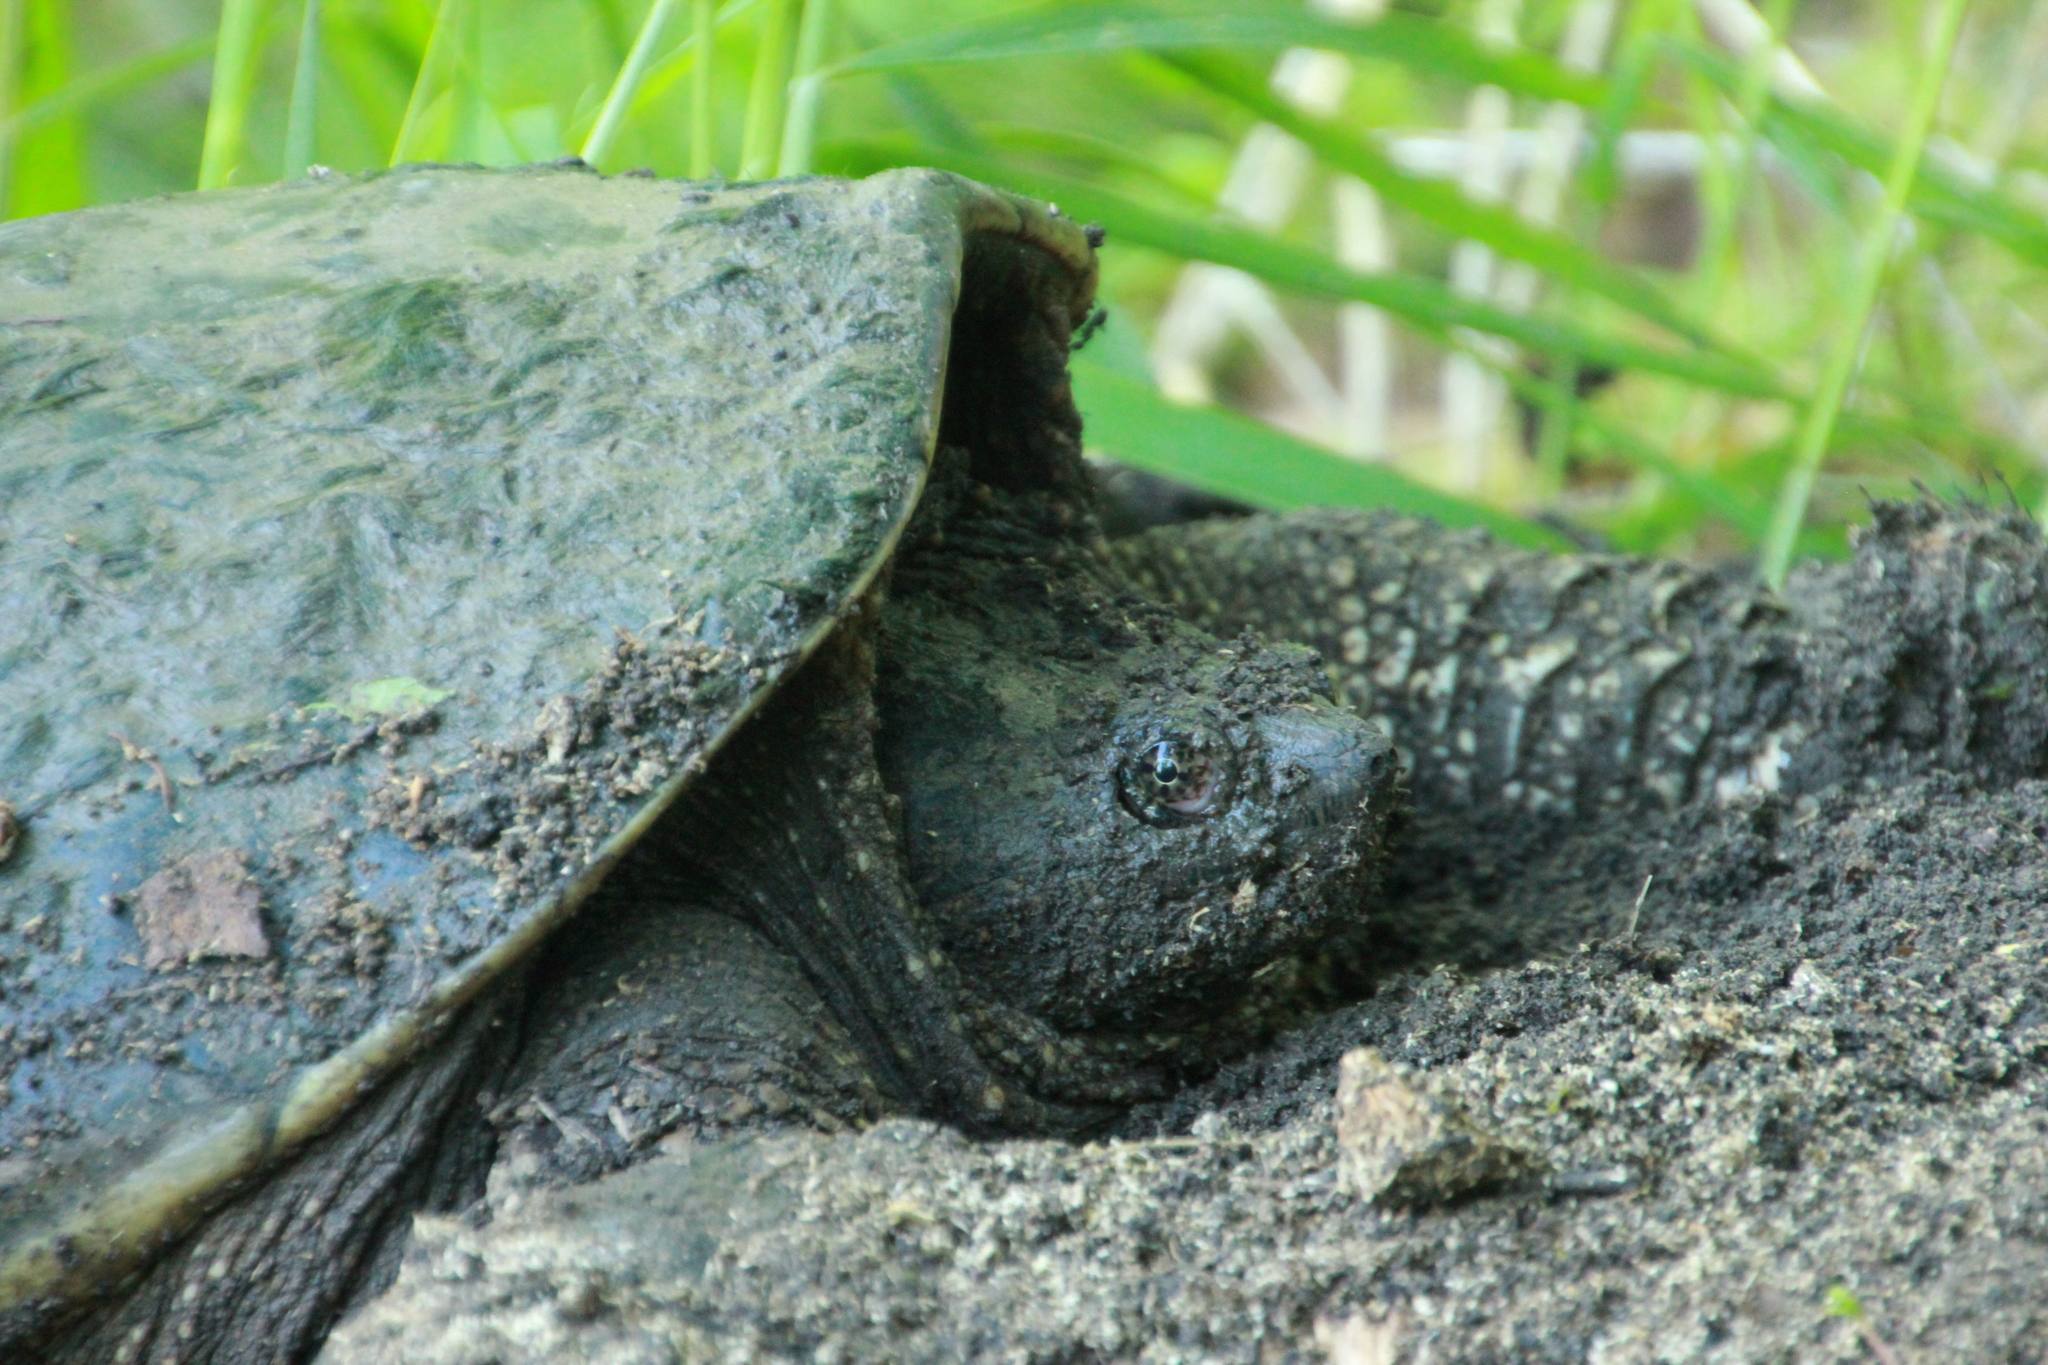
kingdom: Animalia
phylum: Chordata
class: Testudines
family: Chelydridae
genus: Chelydra
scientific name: Chelydra serpentina
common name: Common snapping turtle
